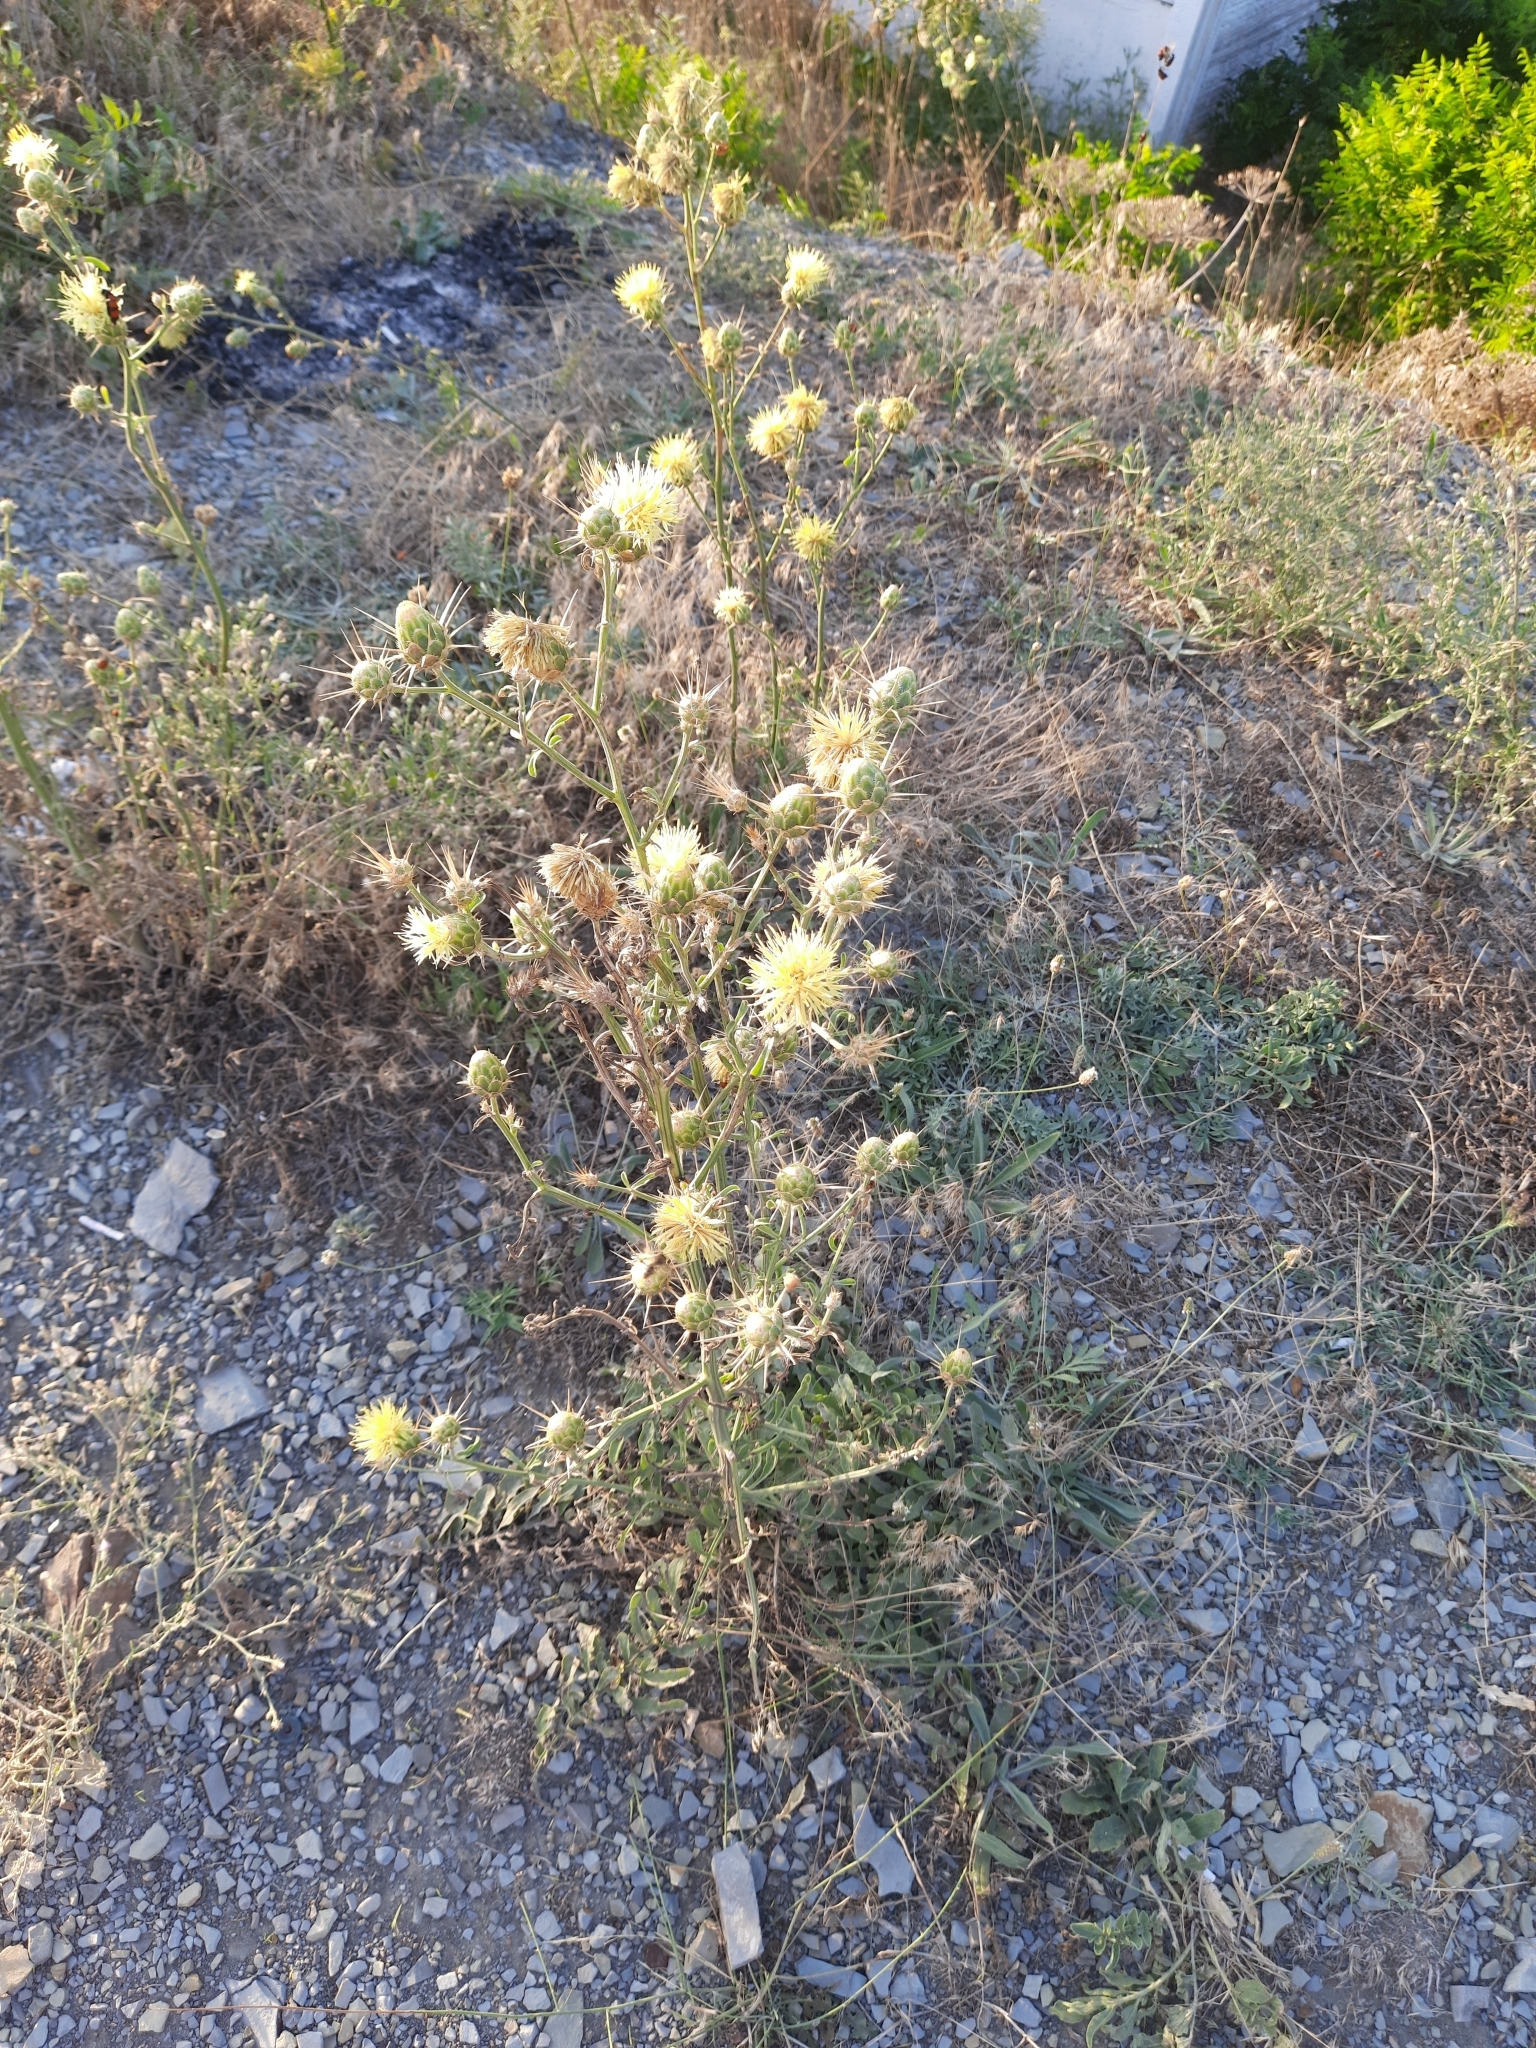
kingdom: Plantae
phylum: Tracheophyta
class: Magnoliopsida
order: Asterales
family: Asteraceae
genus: Centaurea
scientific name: Centaurea salonitana
